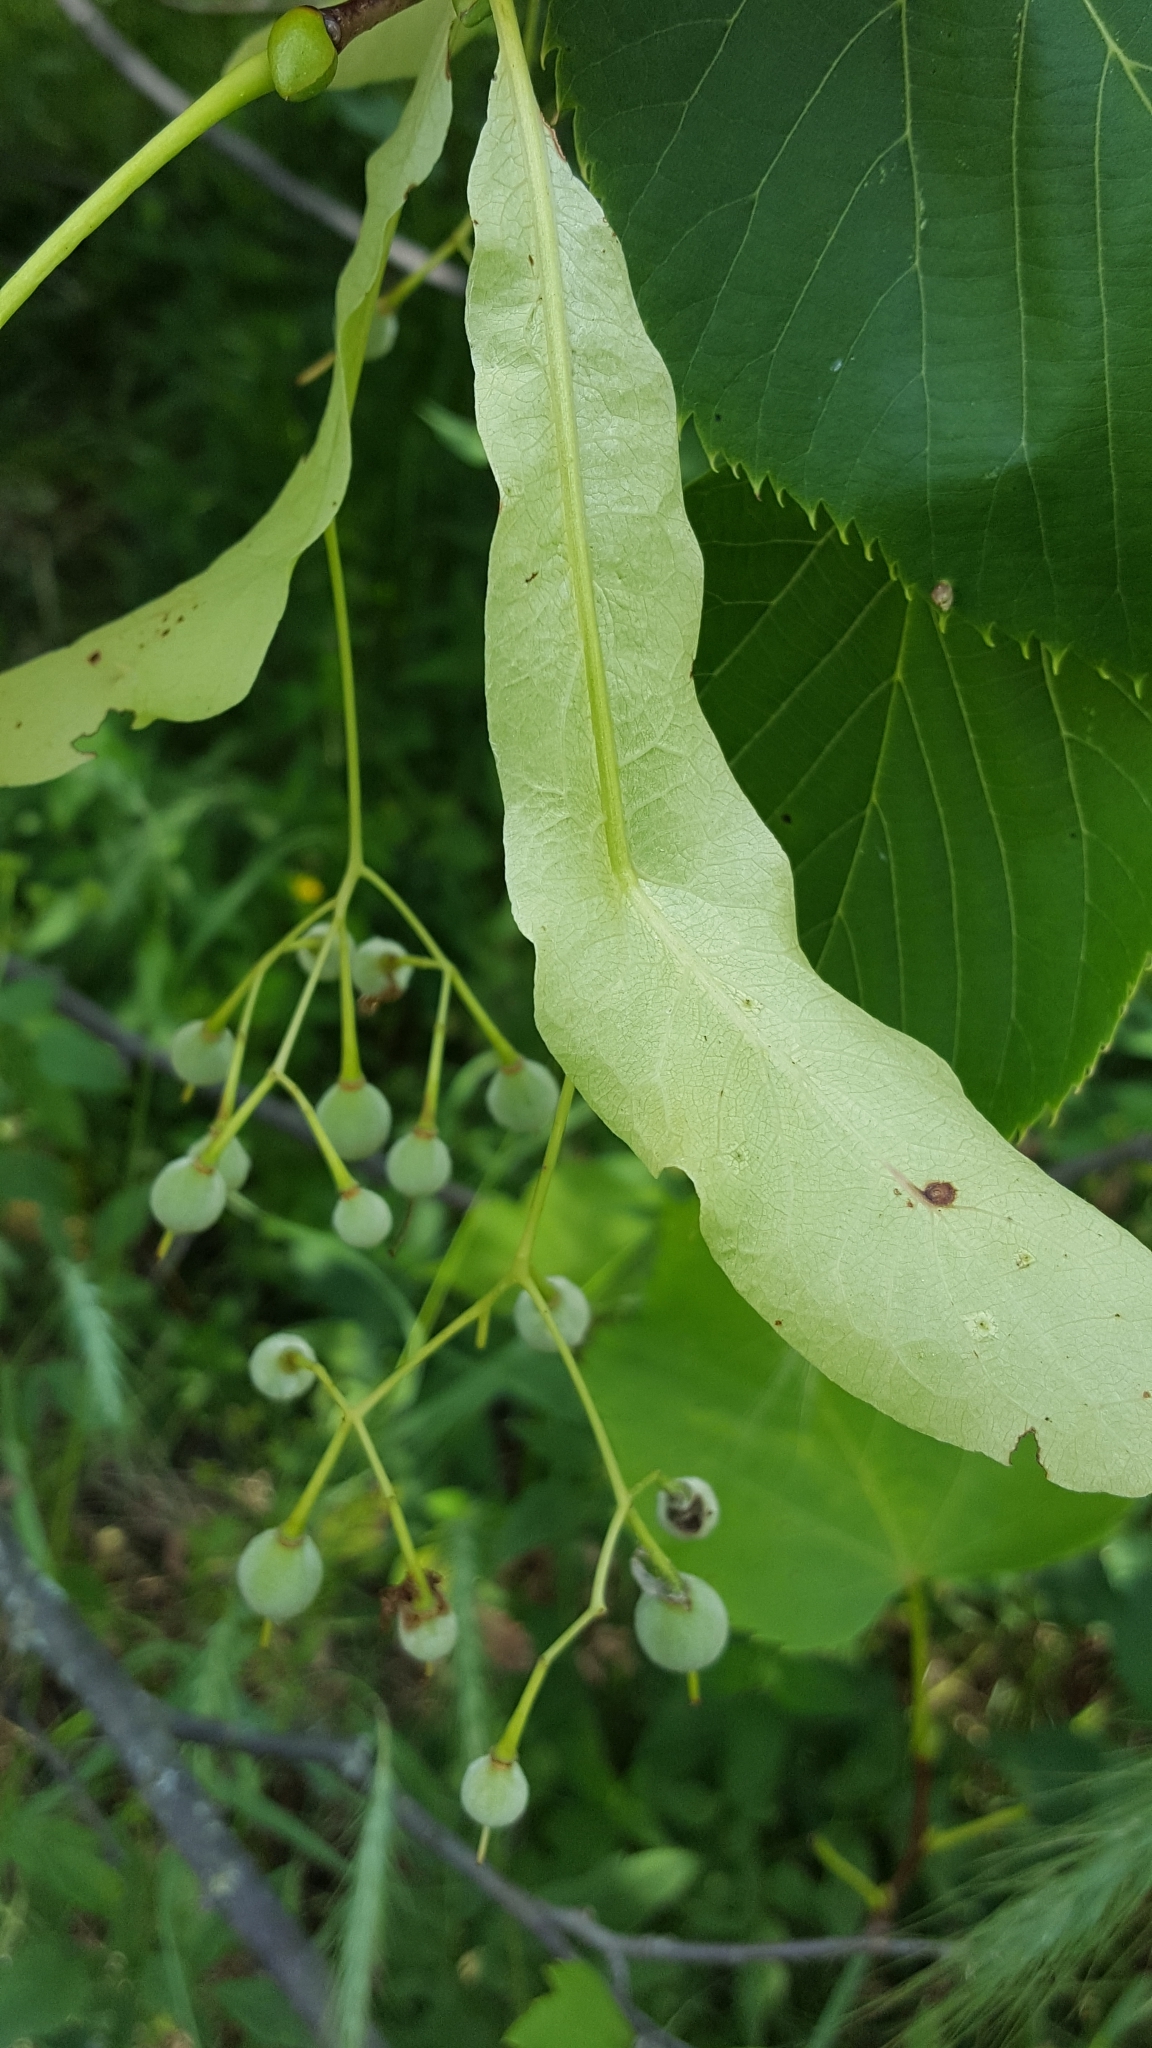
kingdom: Plantae
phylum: Tracheophyta
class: Magnoliopsida
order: Malvales
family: Malvaceae
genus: Tilia
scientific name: Tilia americana
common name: Basswood
